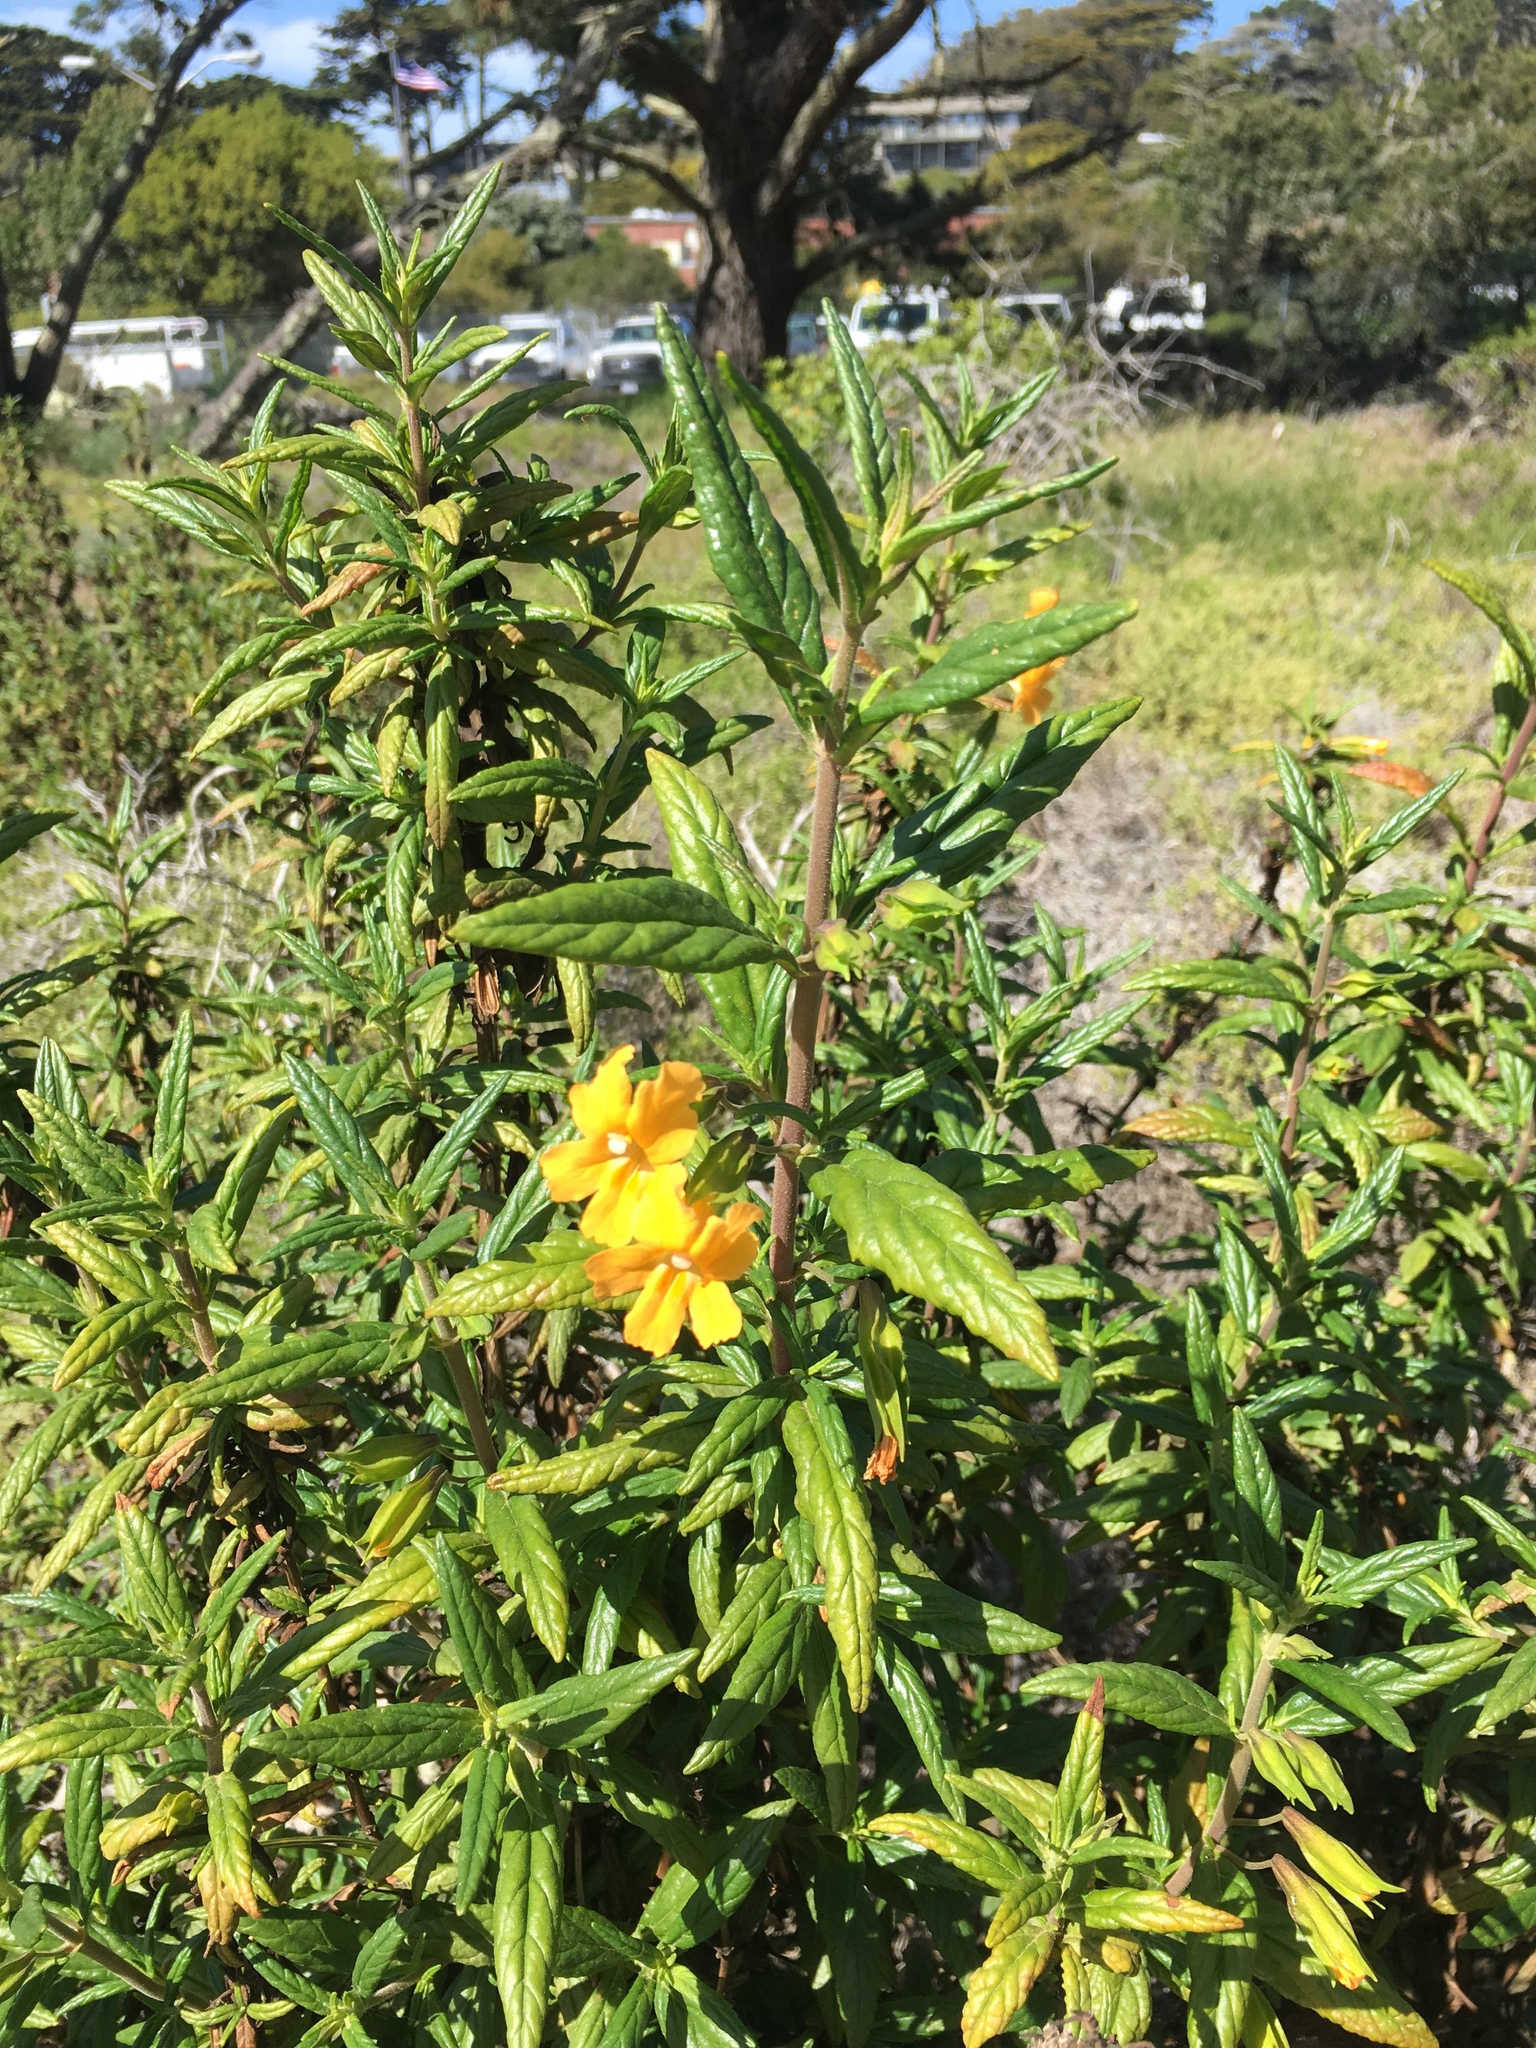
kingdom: Plantae
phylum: Tracheophyta
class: Magnoliopsida
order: Lamiales
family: Phrymaceae
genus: Diplacus
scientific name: Diplacus aurantiacus
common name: Bush monkey-flower
